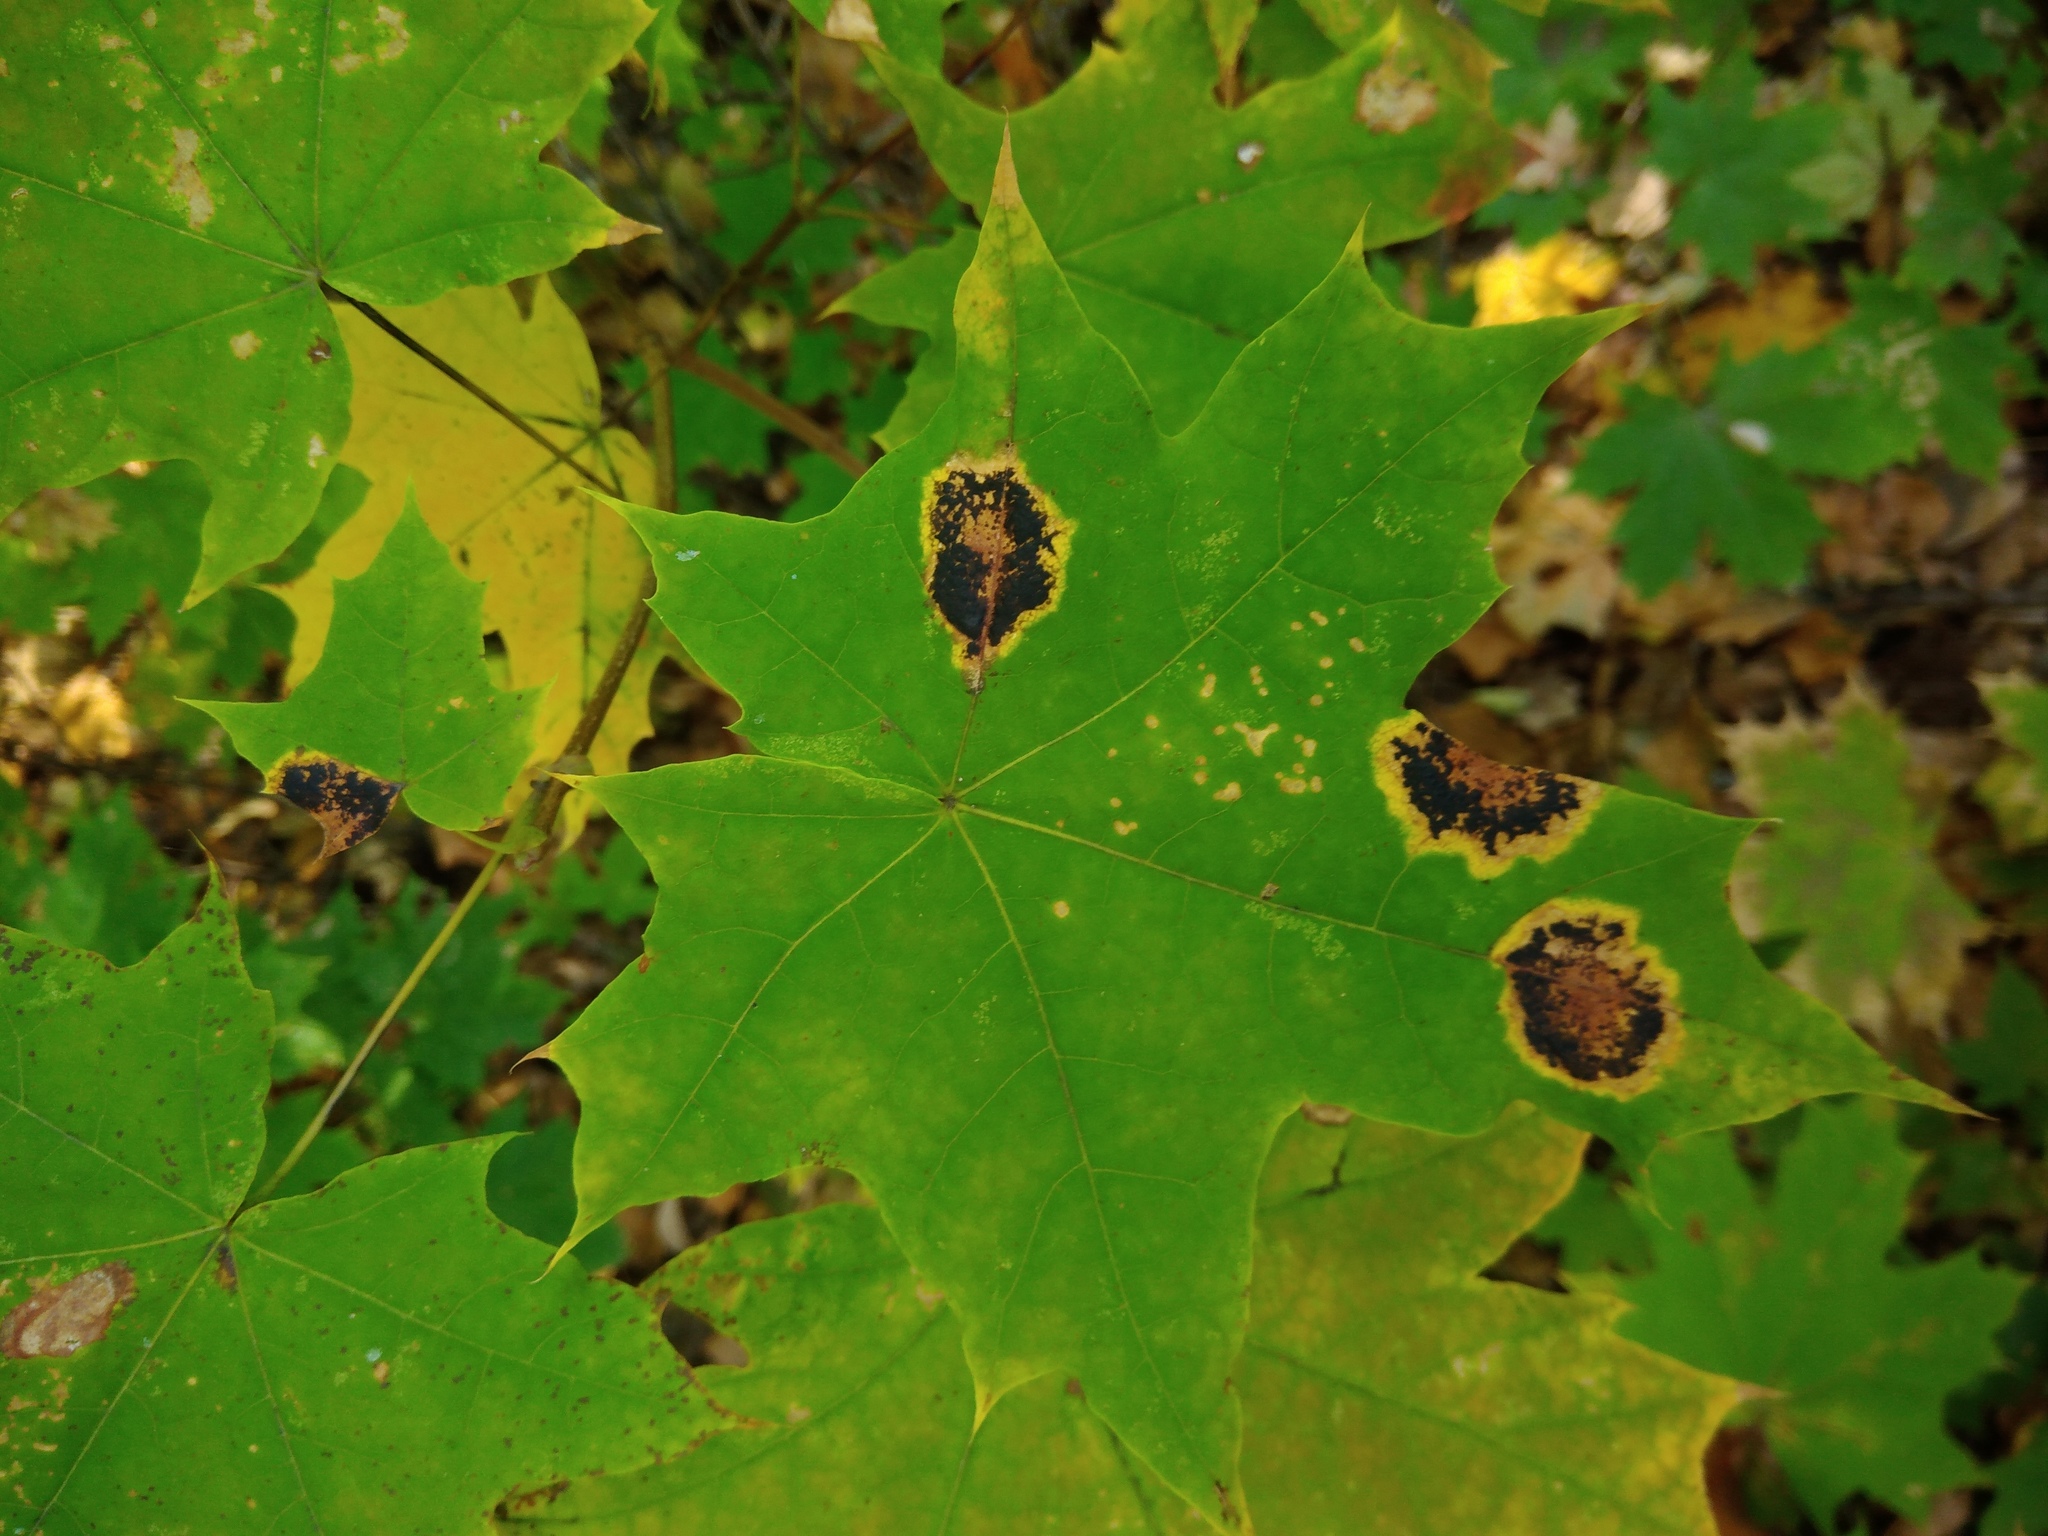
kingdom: Fungi
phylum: Ascomycota
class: Leotiomycetes
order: Rhytismatales
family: Rhytismataceae
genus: Rhytisma
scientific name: Rhytisma acerinum
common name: European tar spot
